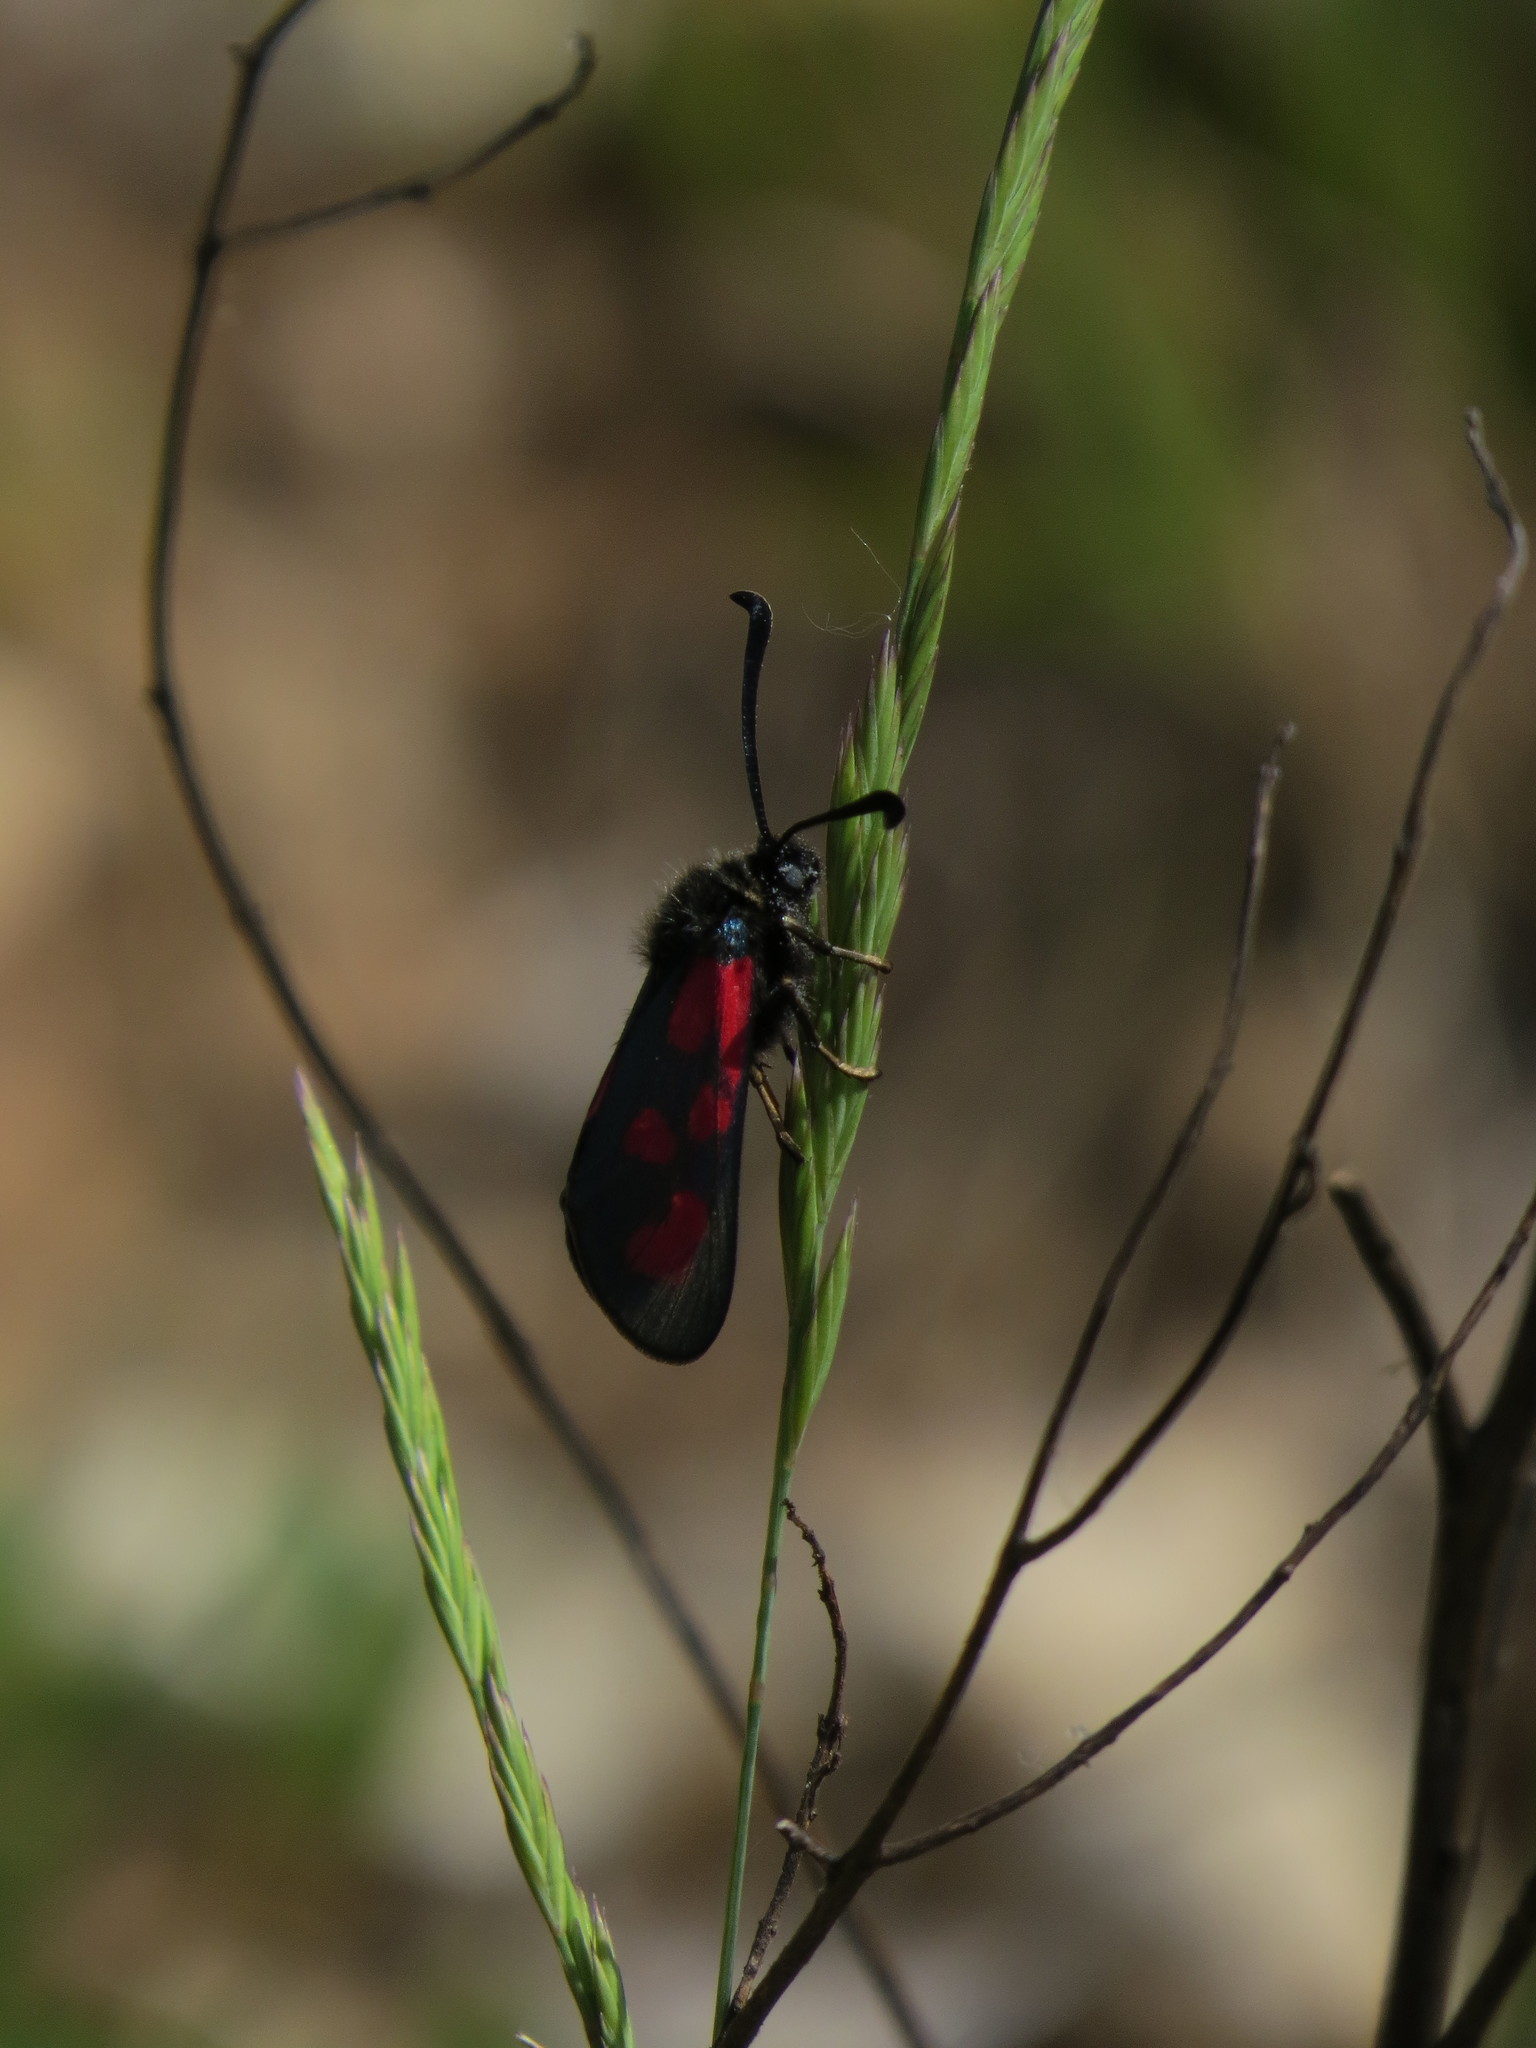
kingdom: Animalia
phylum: Arthropoda
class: Insecta
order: Lepidoptera
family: Zygaenidae
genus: Zygaena
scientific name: Zygaena loti
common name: Slender scotch burnet
